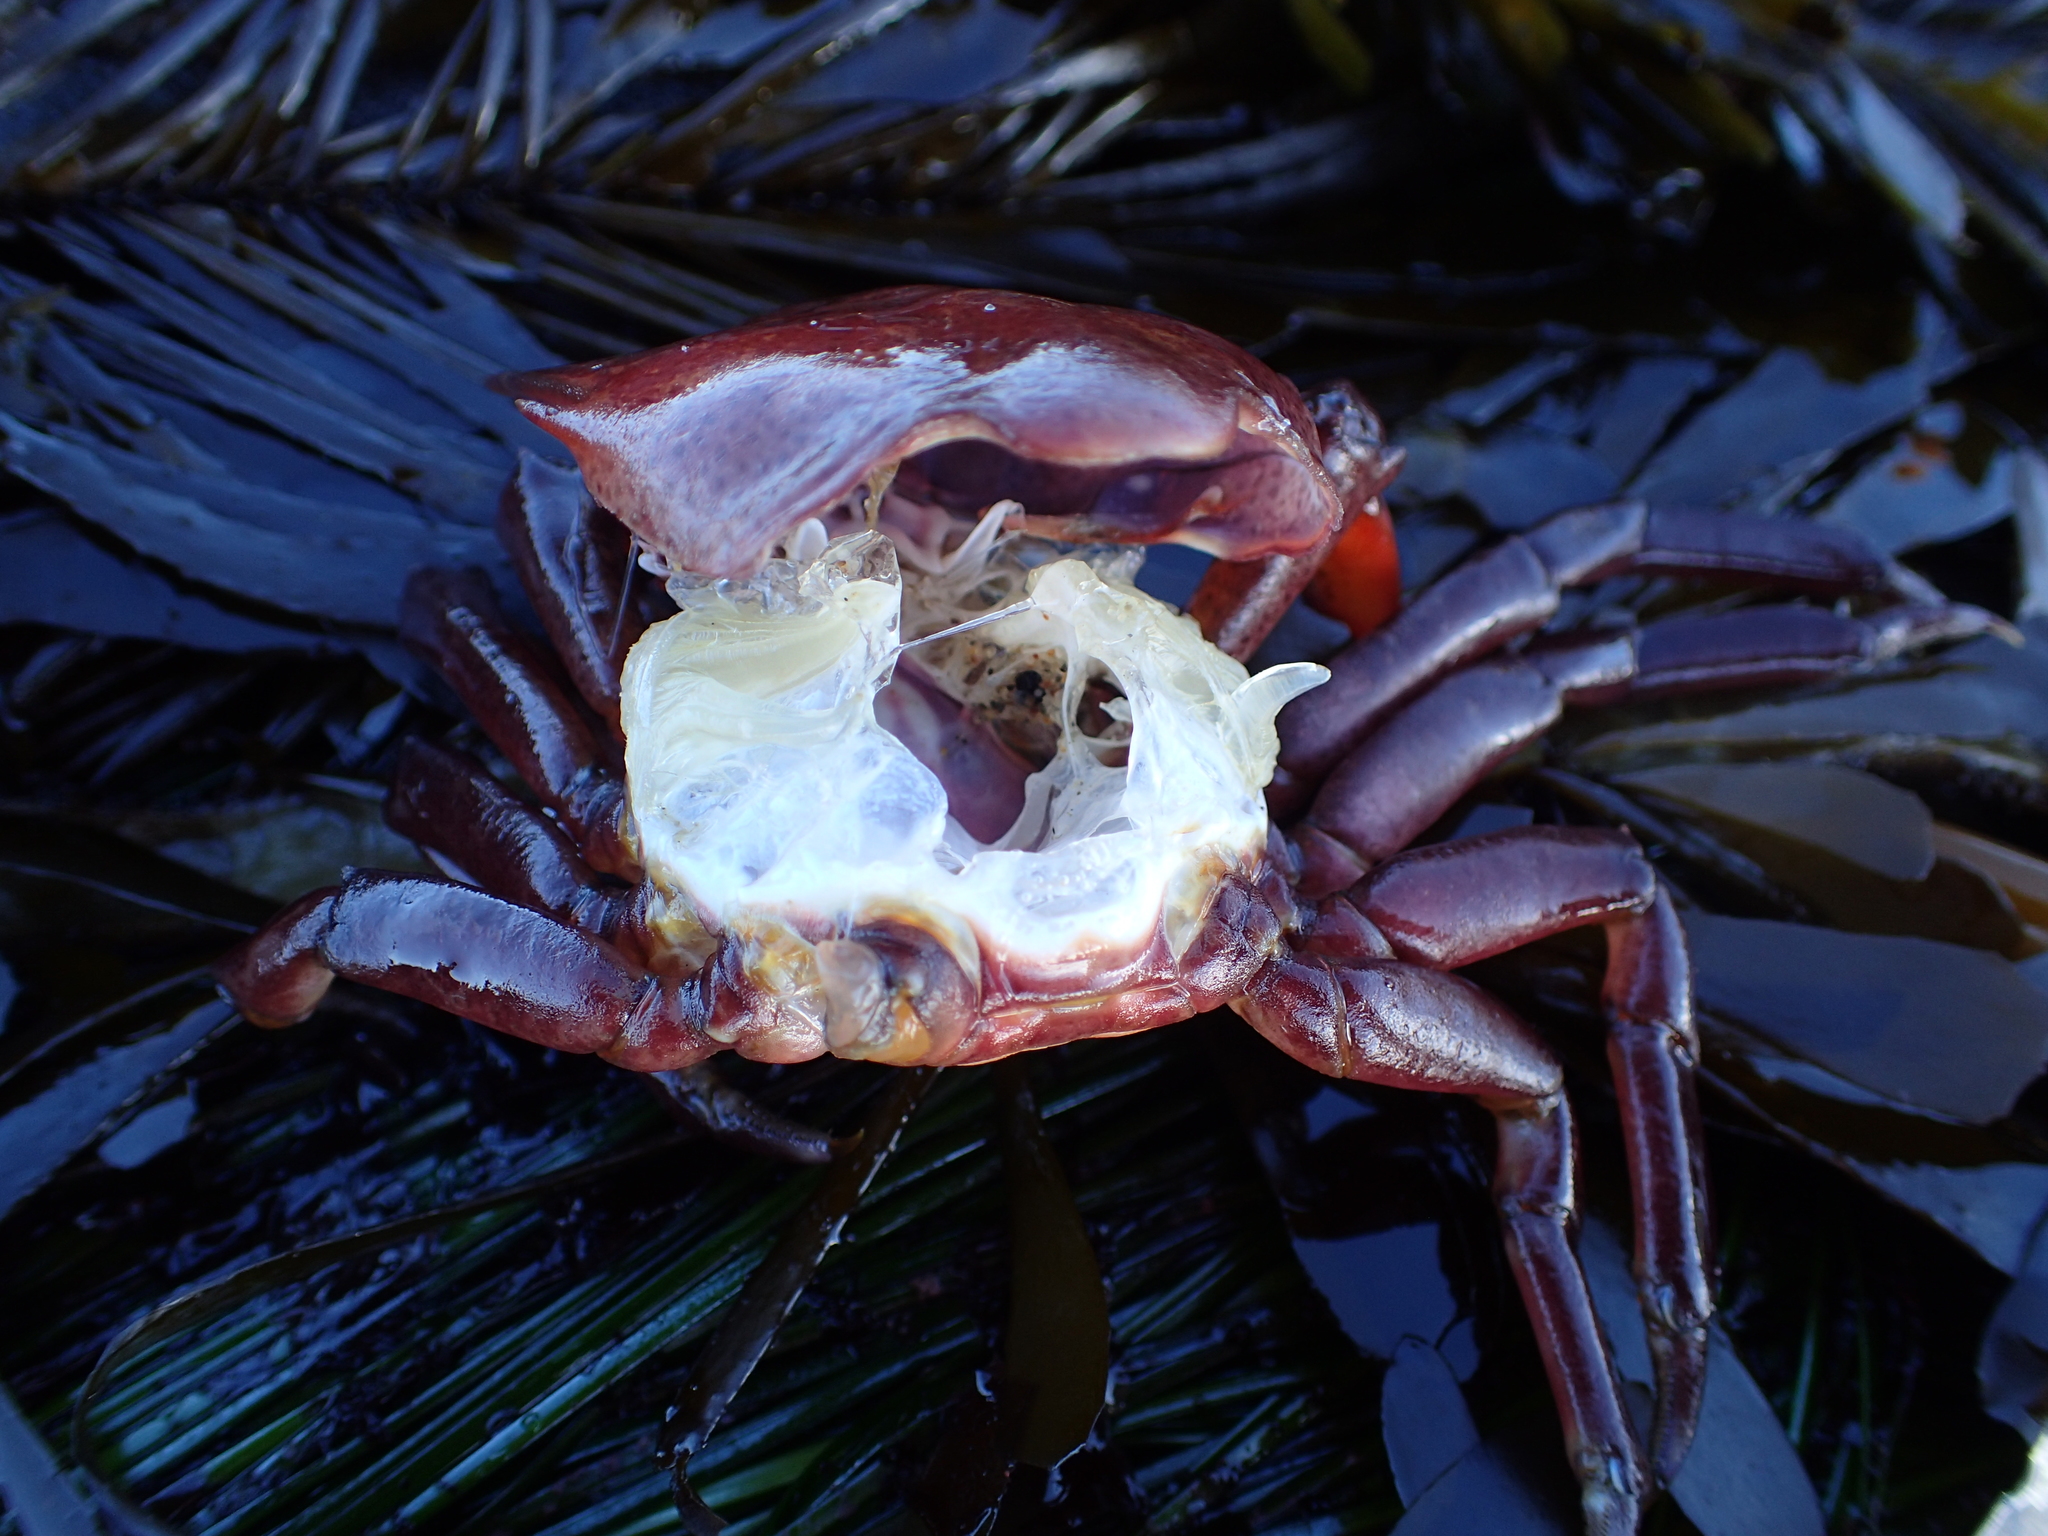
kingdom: Animalia
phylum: Arthropoda
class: Malacostraca
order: Decapoda
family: Epialtidae
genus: Pugettia
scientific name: Pugettia producta
